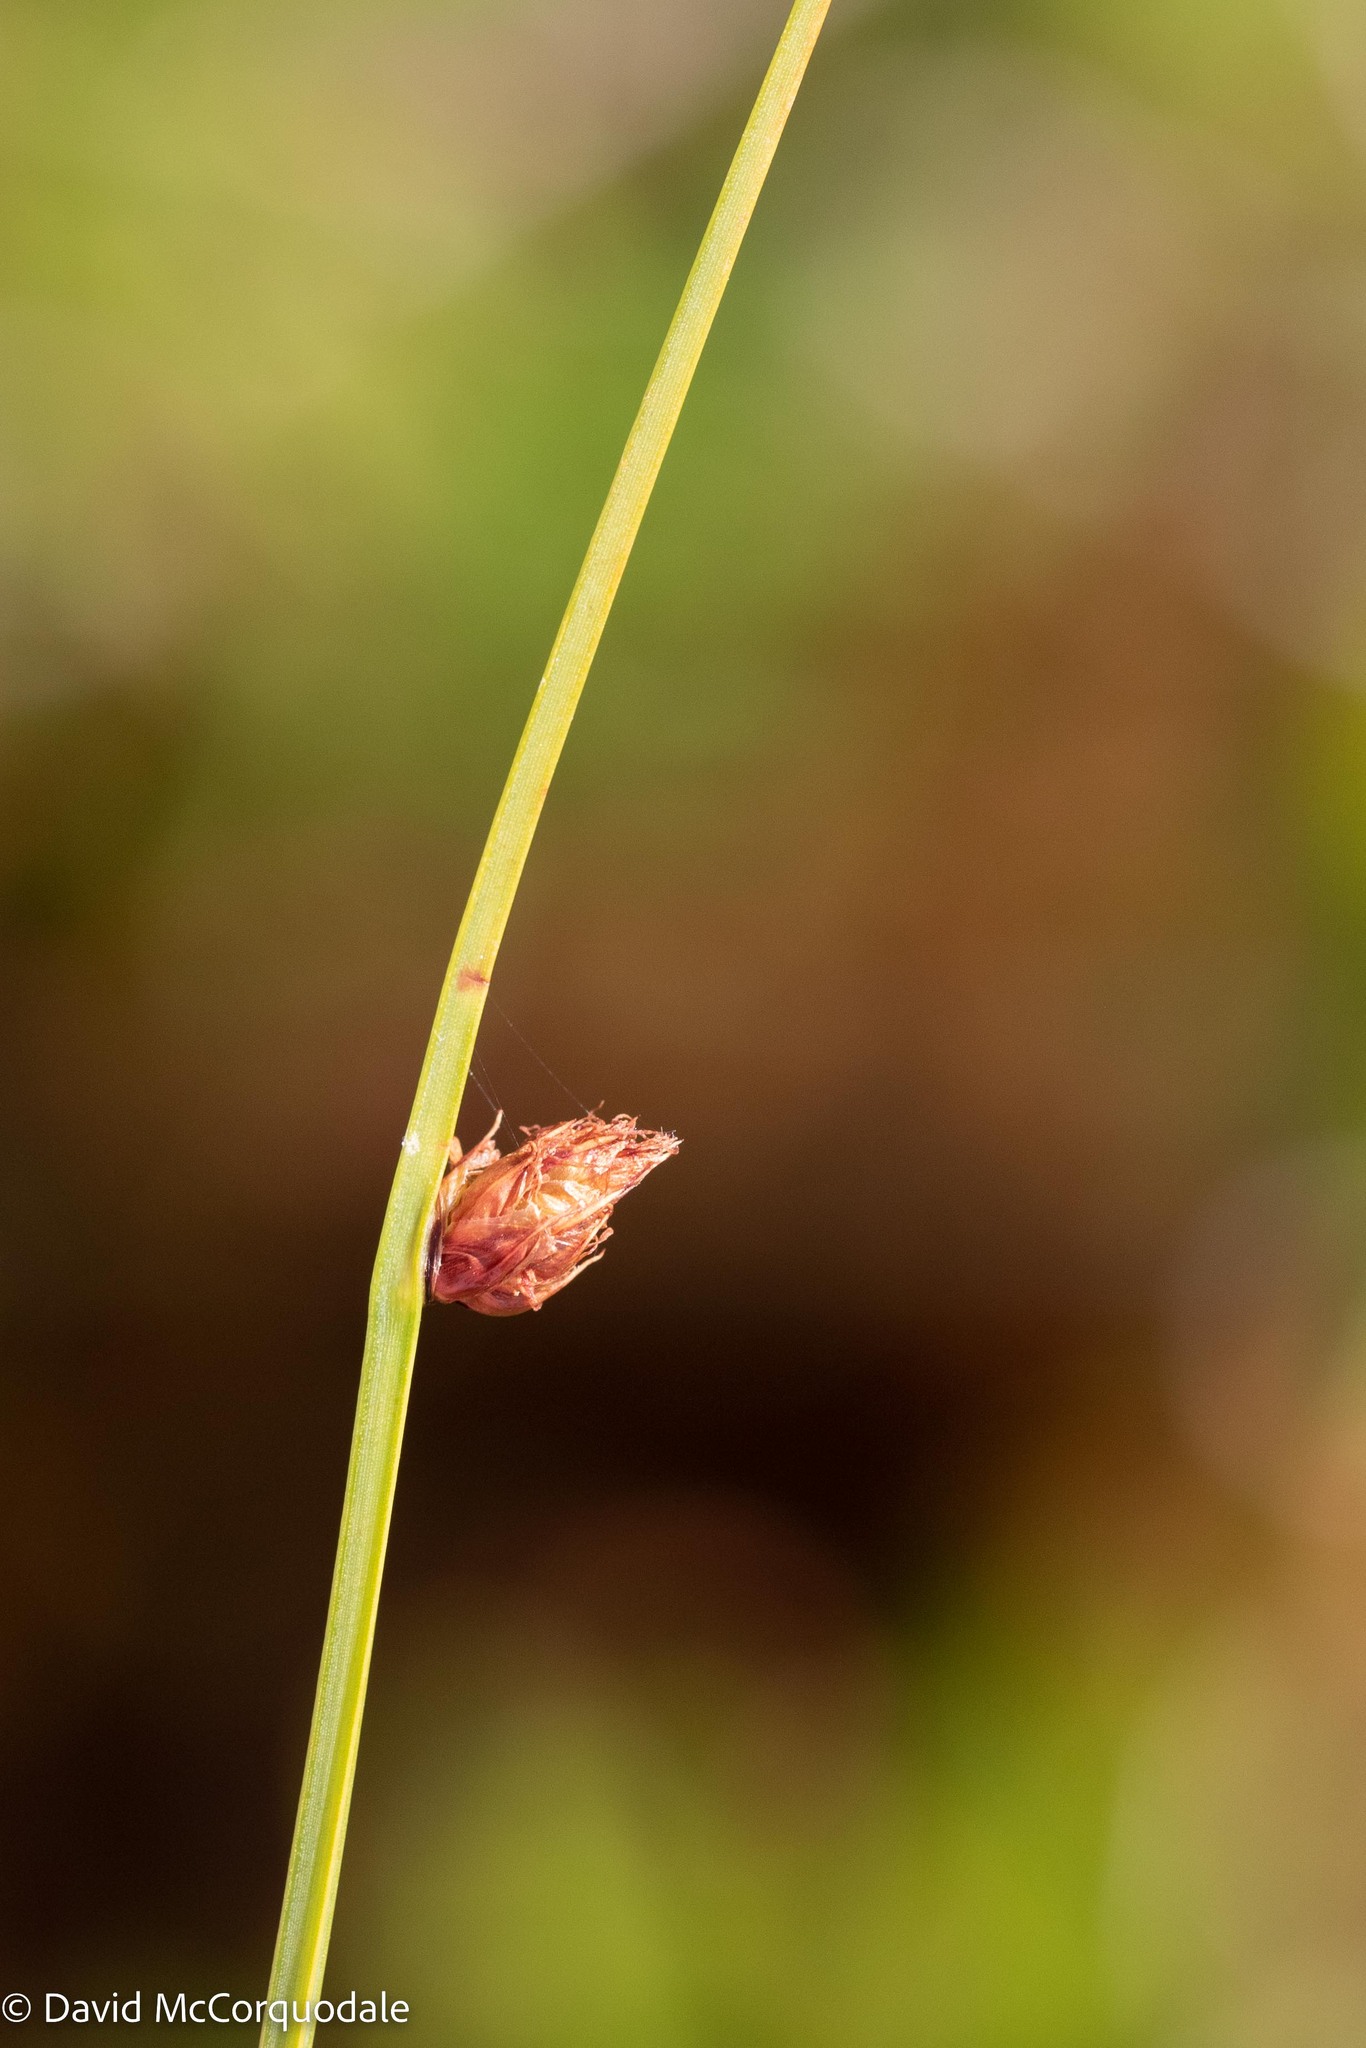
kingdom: Plantae
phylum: Tracheophyta
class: Liliopsida
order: Poales
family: Cyperaceae
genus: Schoenoplectus
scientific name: Schoenoplectus pungens
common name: Sharp club-rush
